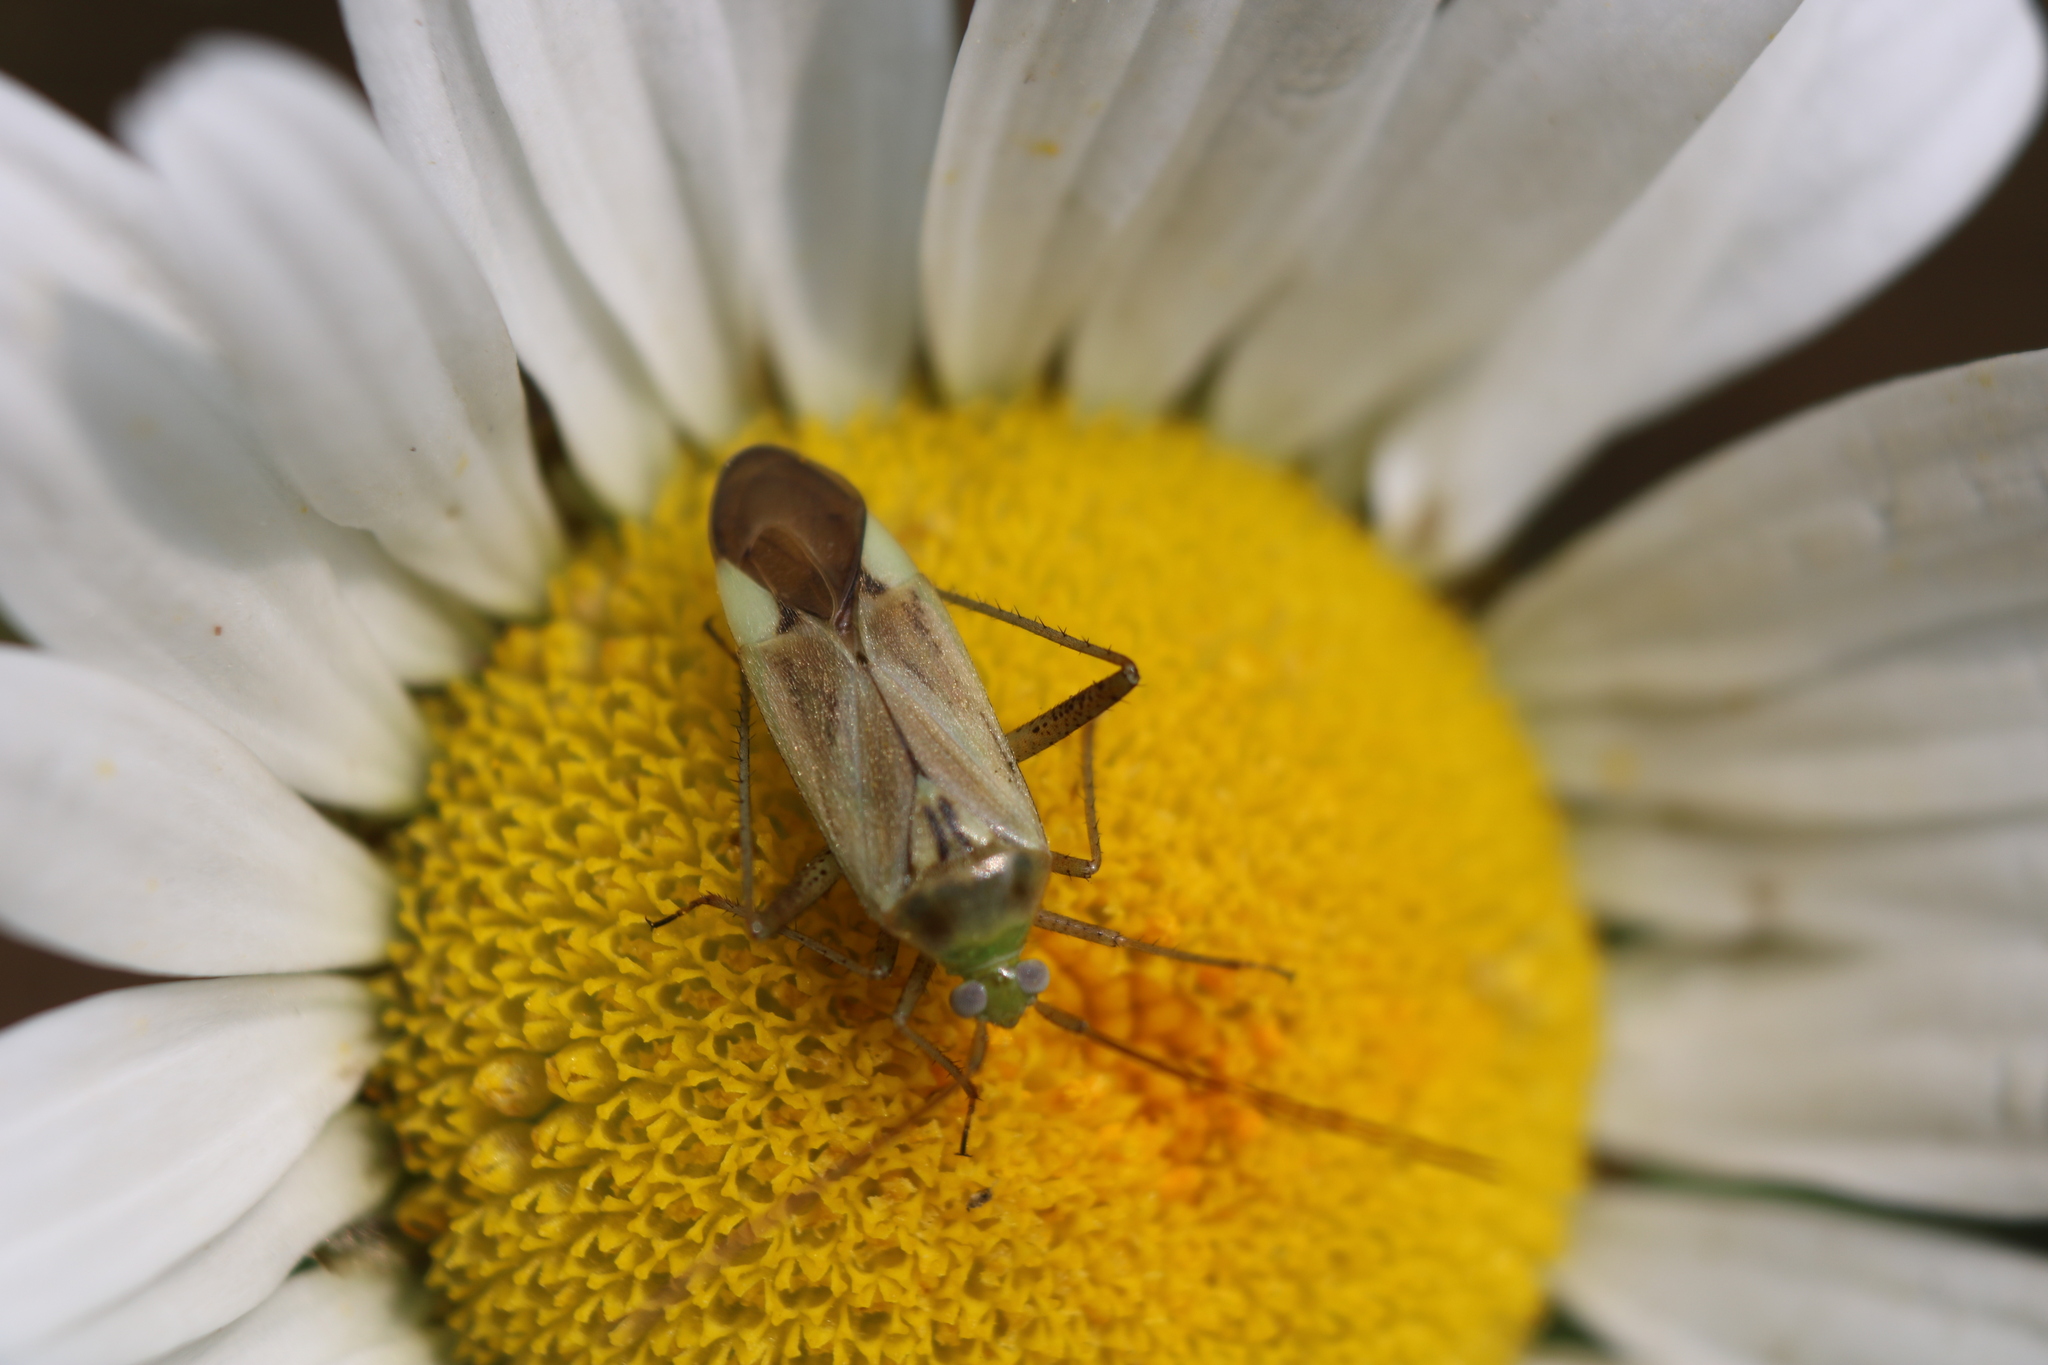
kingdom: Animalia
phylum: Arthropoda
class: Insecta
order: Hemiptera
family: Miridae
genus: Adelphocoris
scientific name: Adelphocoris lineolatus
